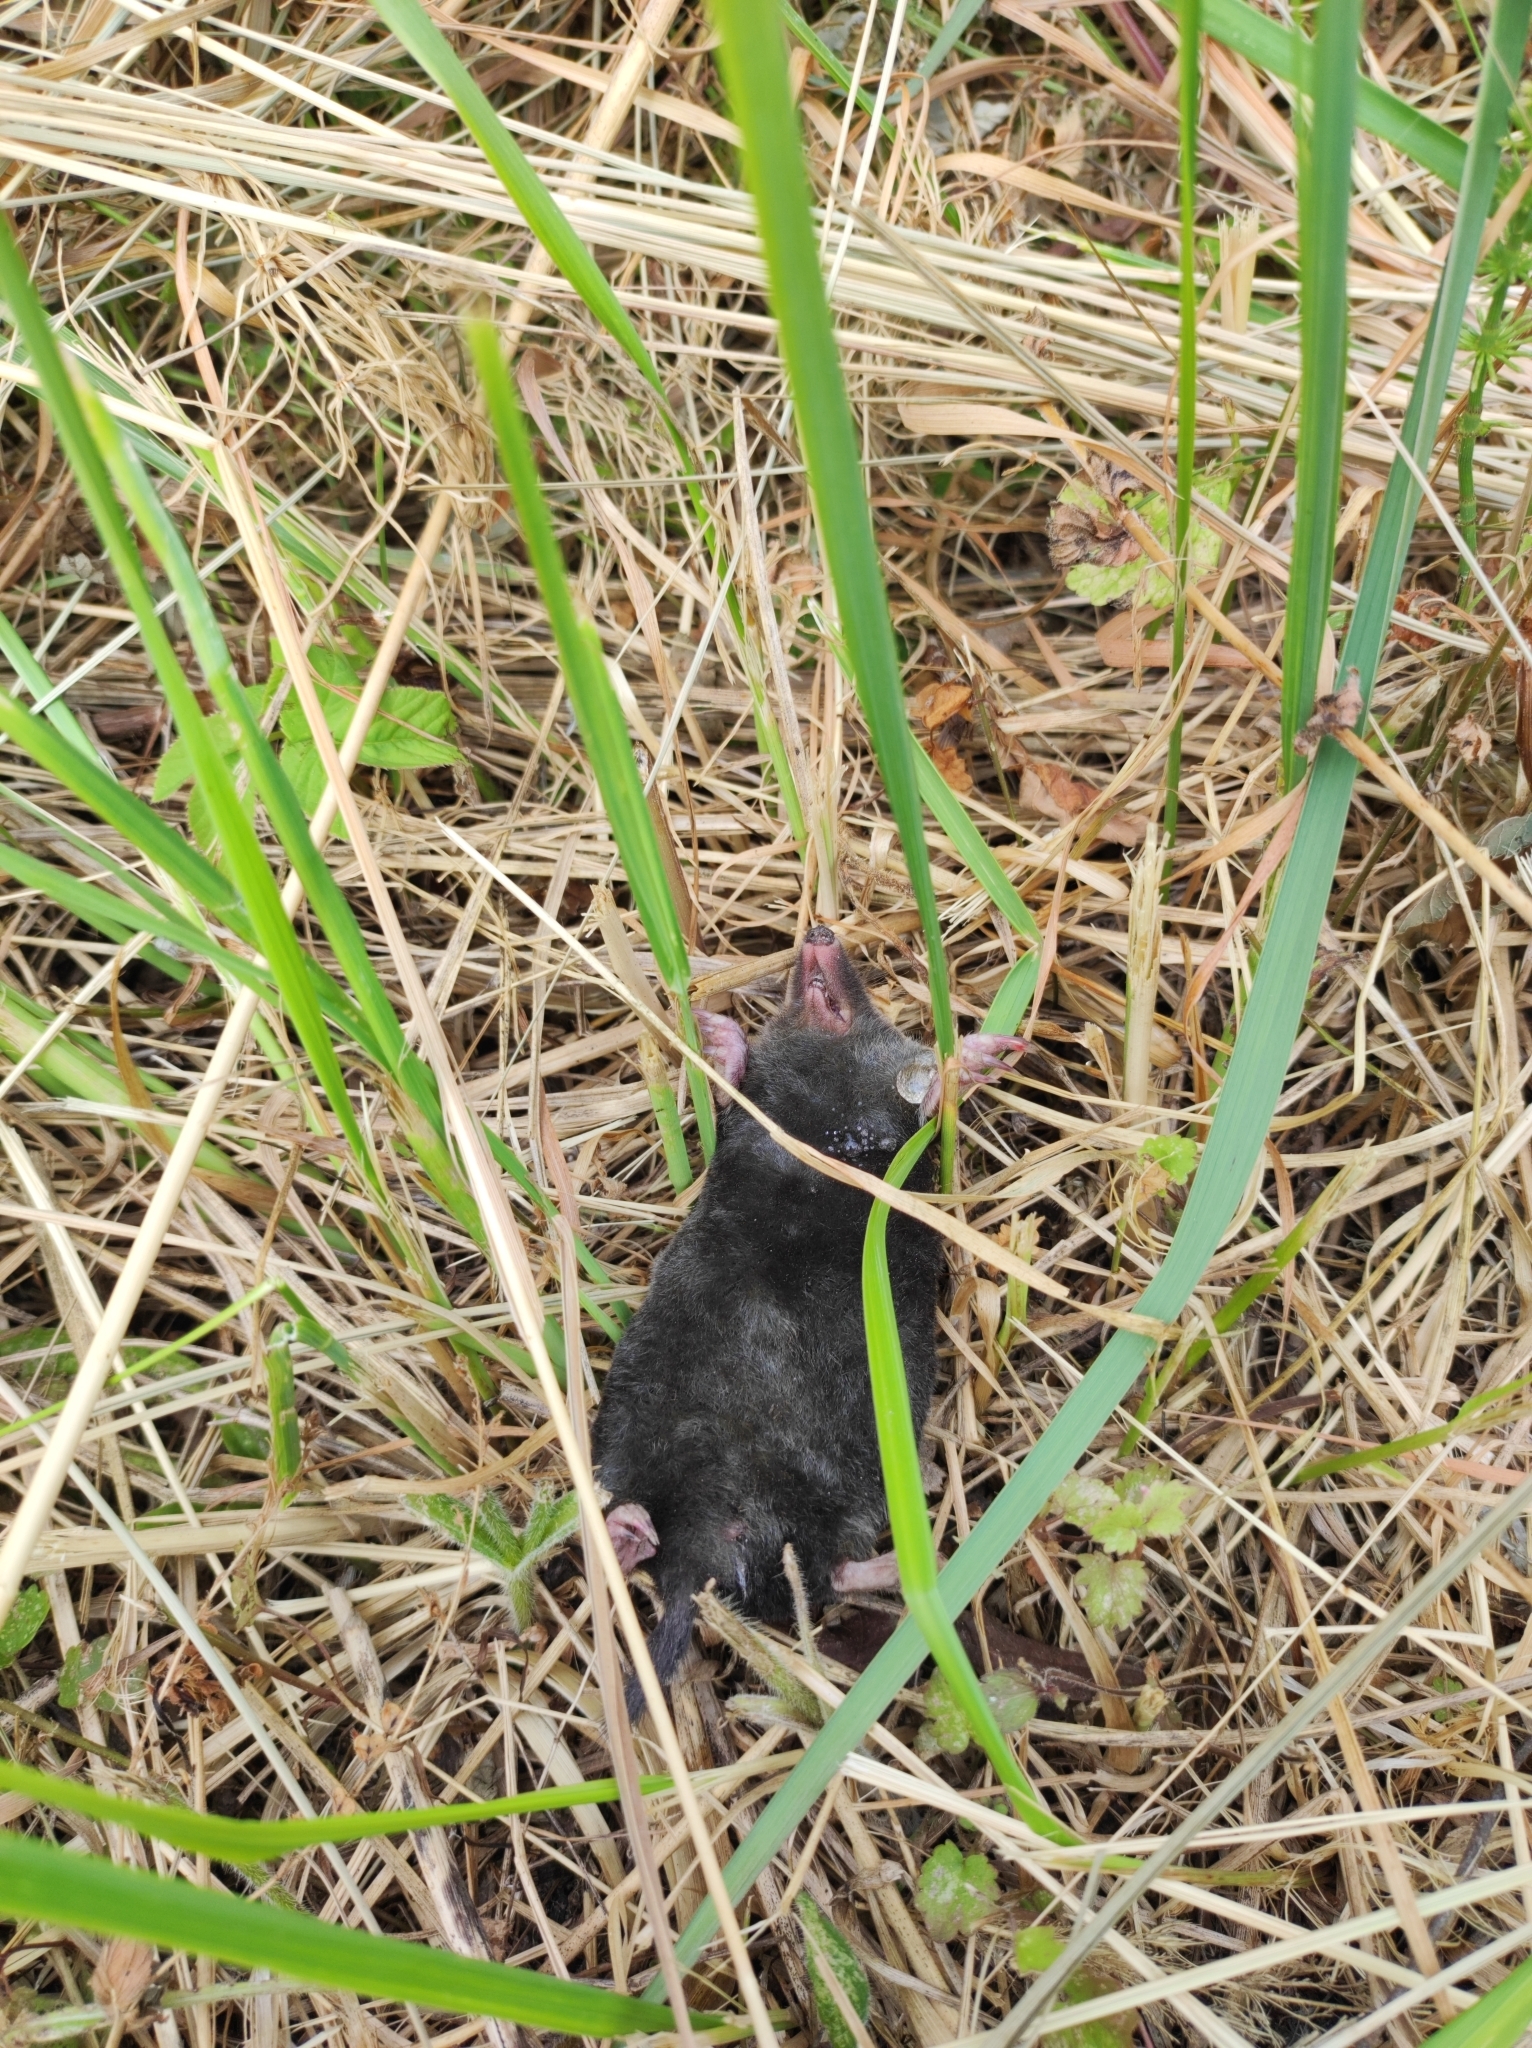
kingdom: Animalia
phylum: Chordata
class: Mammalia
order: Soricomorpha
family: Talpidae
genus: Talpa
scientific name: Talpa europaea
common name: European mole
